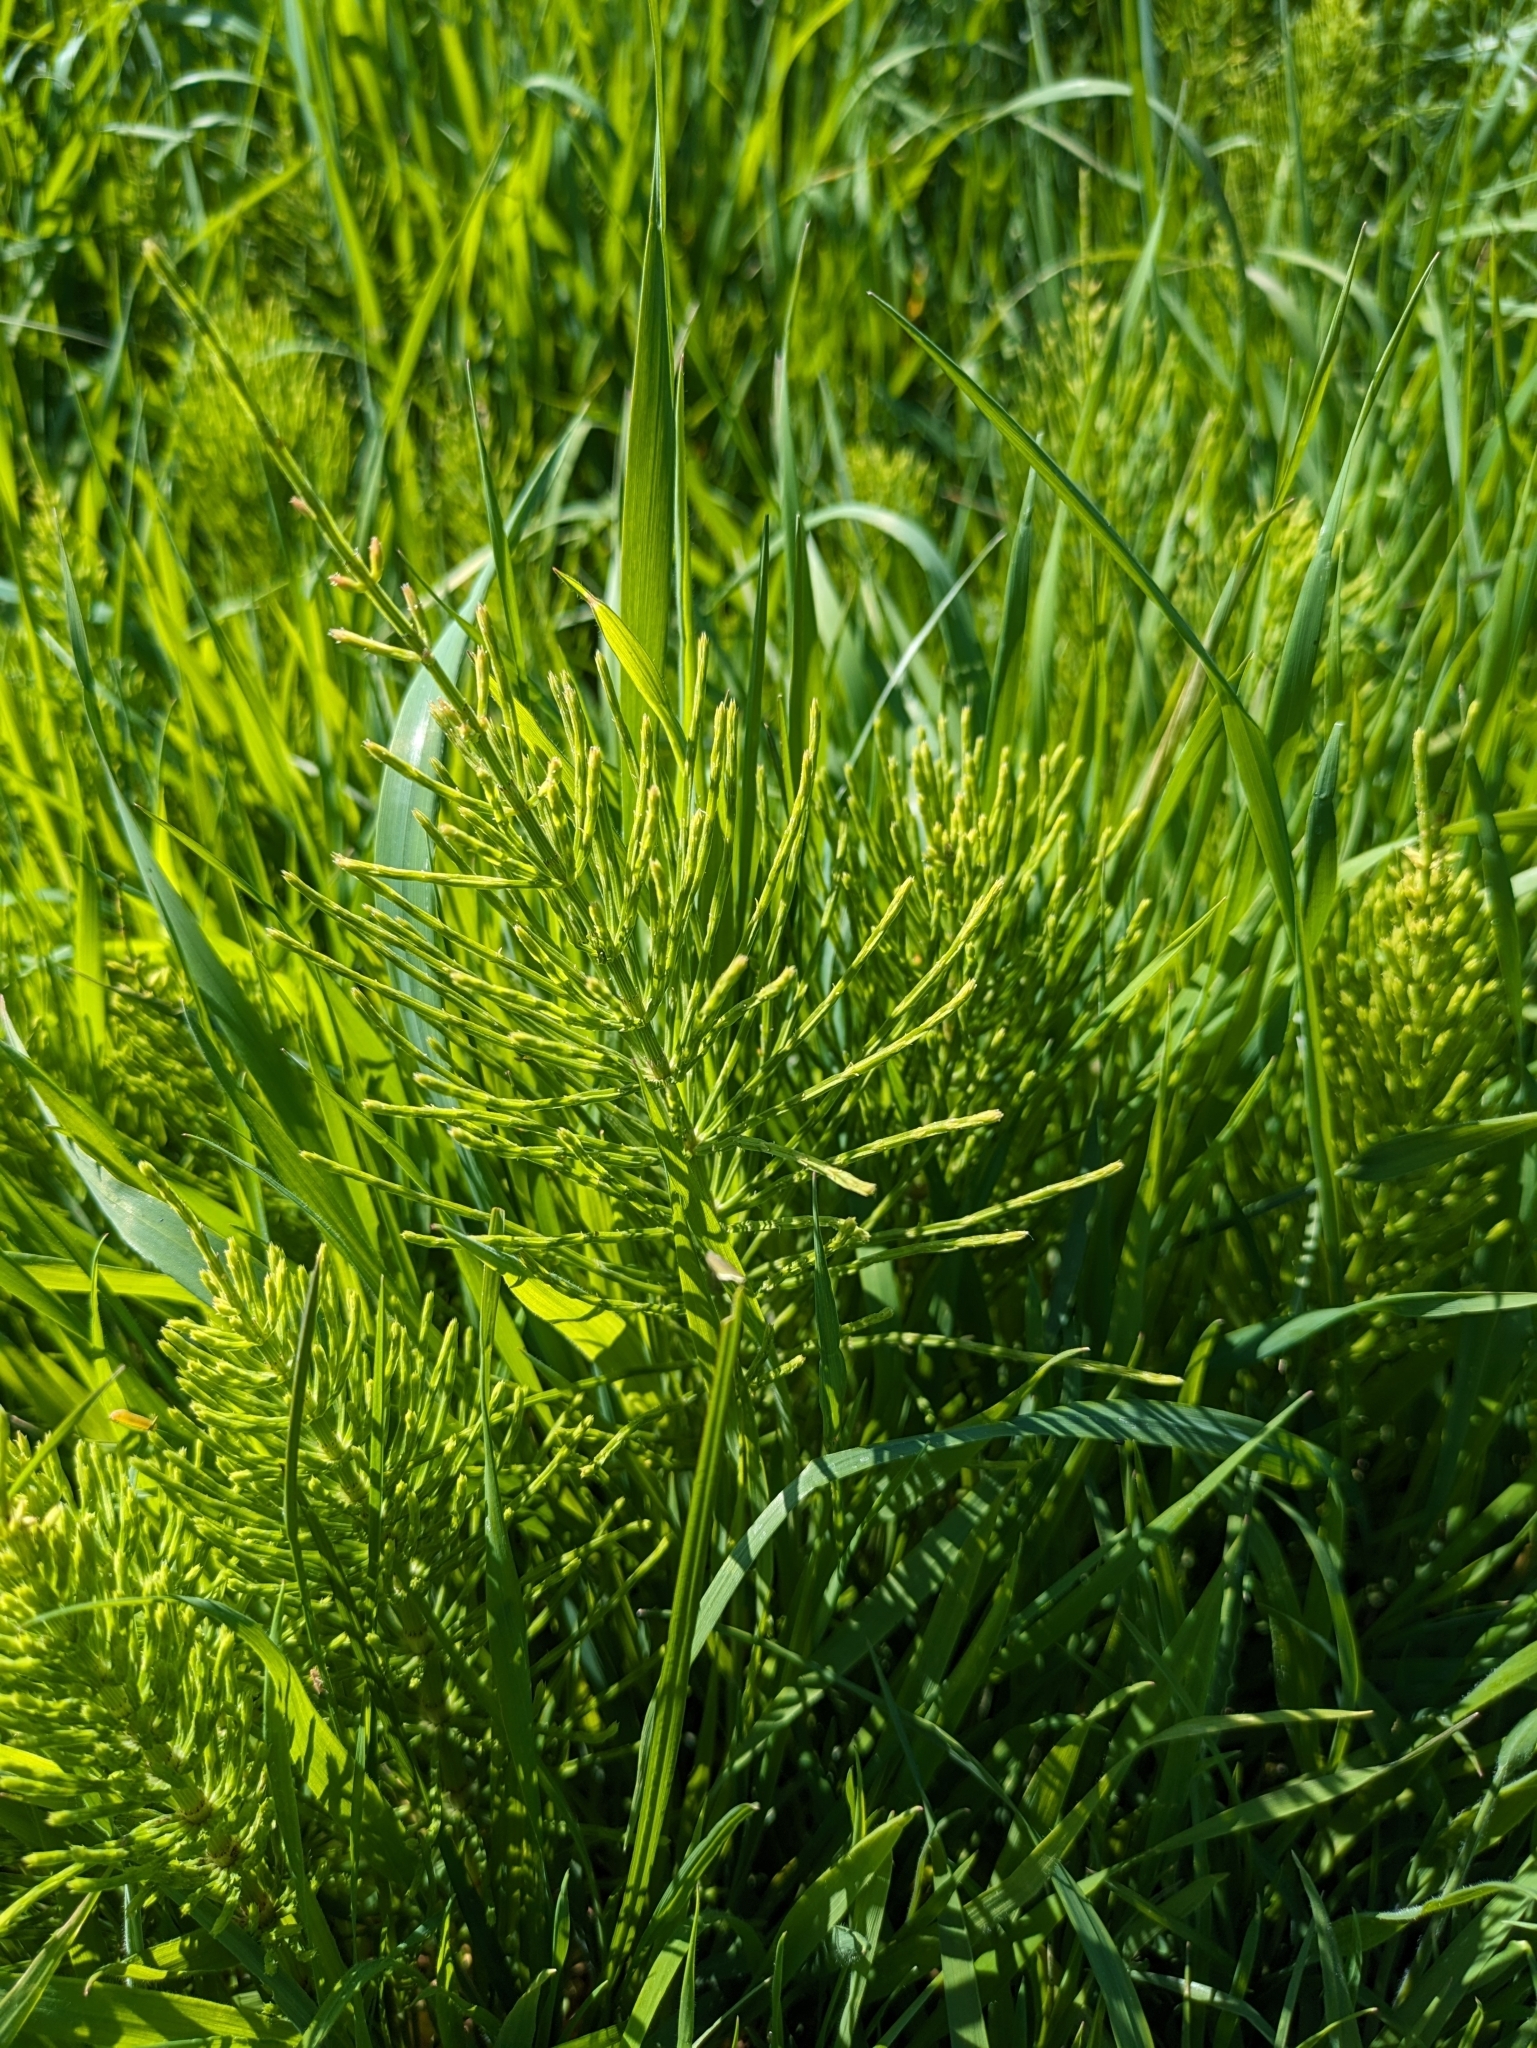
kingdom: Plantae
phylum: Tracheophyta
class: Polypodiopsida
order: Equisetales
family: Equisetaceae
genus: Equisetum
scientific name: Equisetum arvense
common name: Field horsetail
